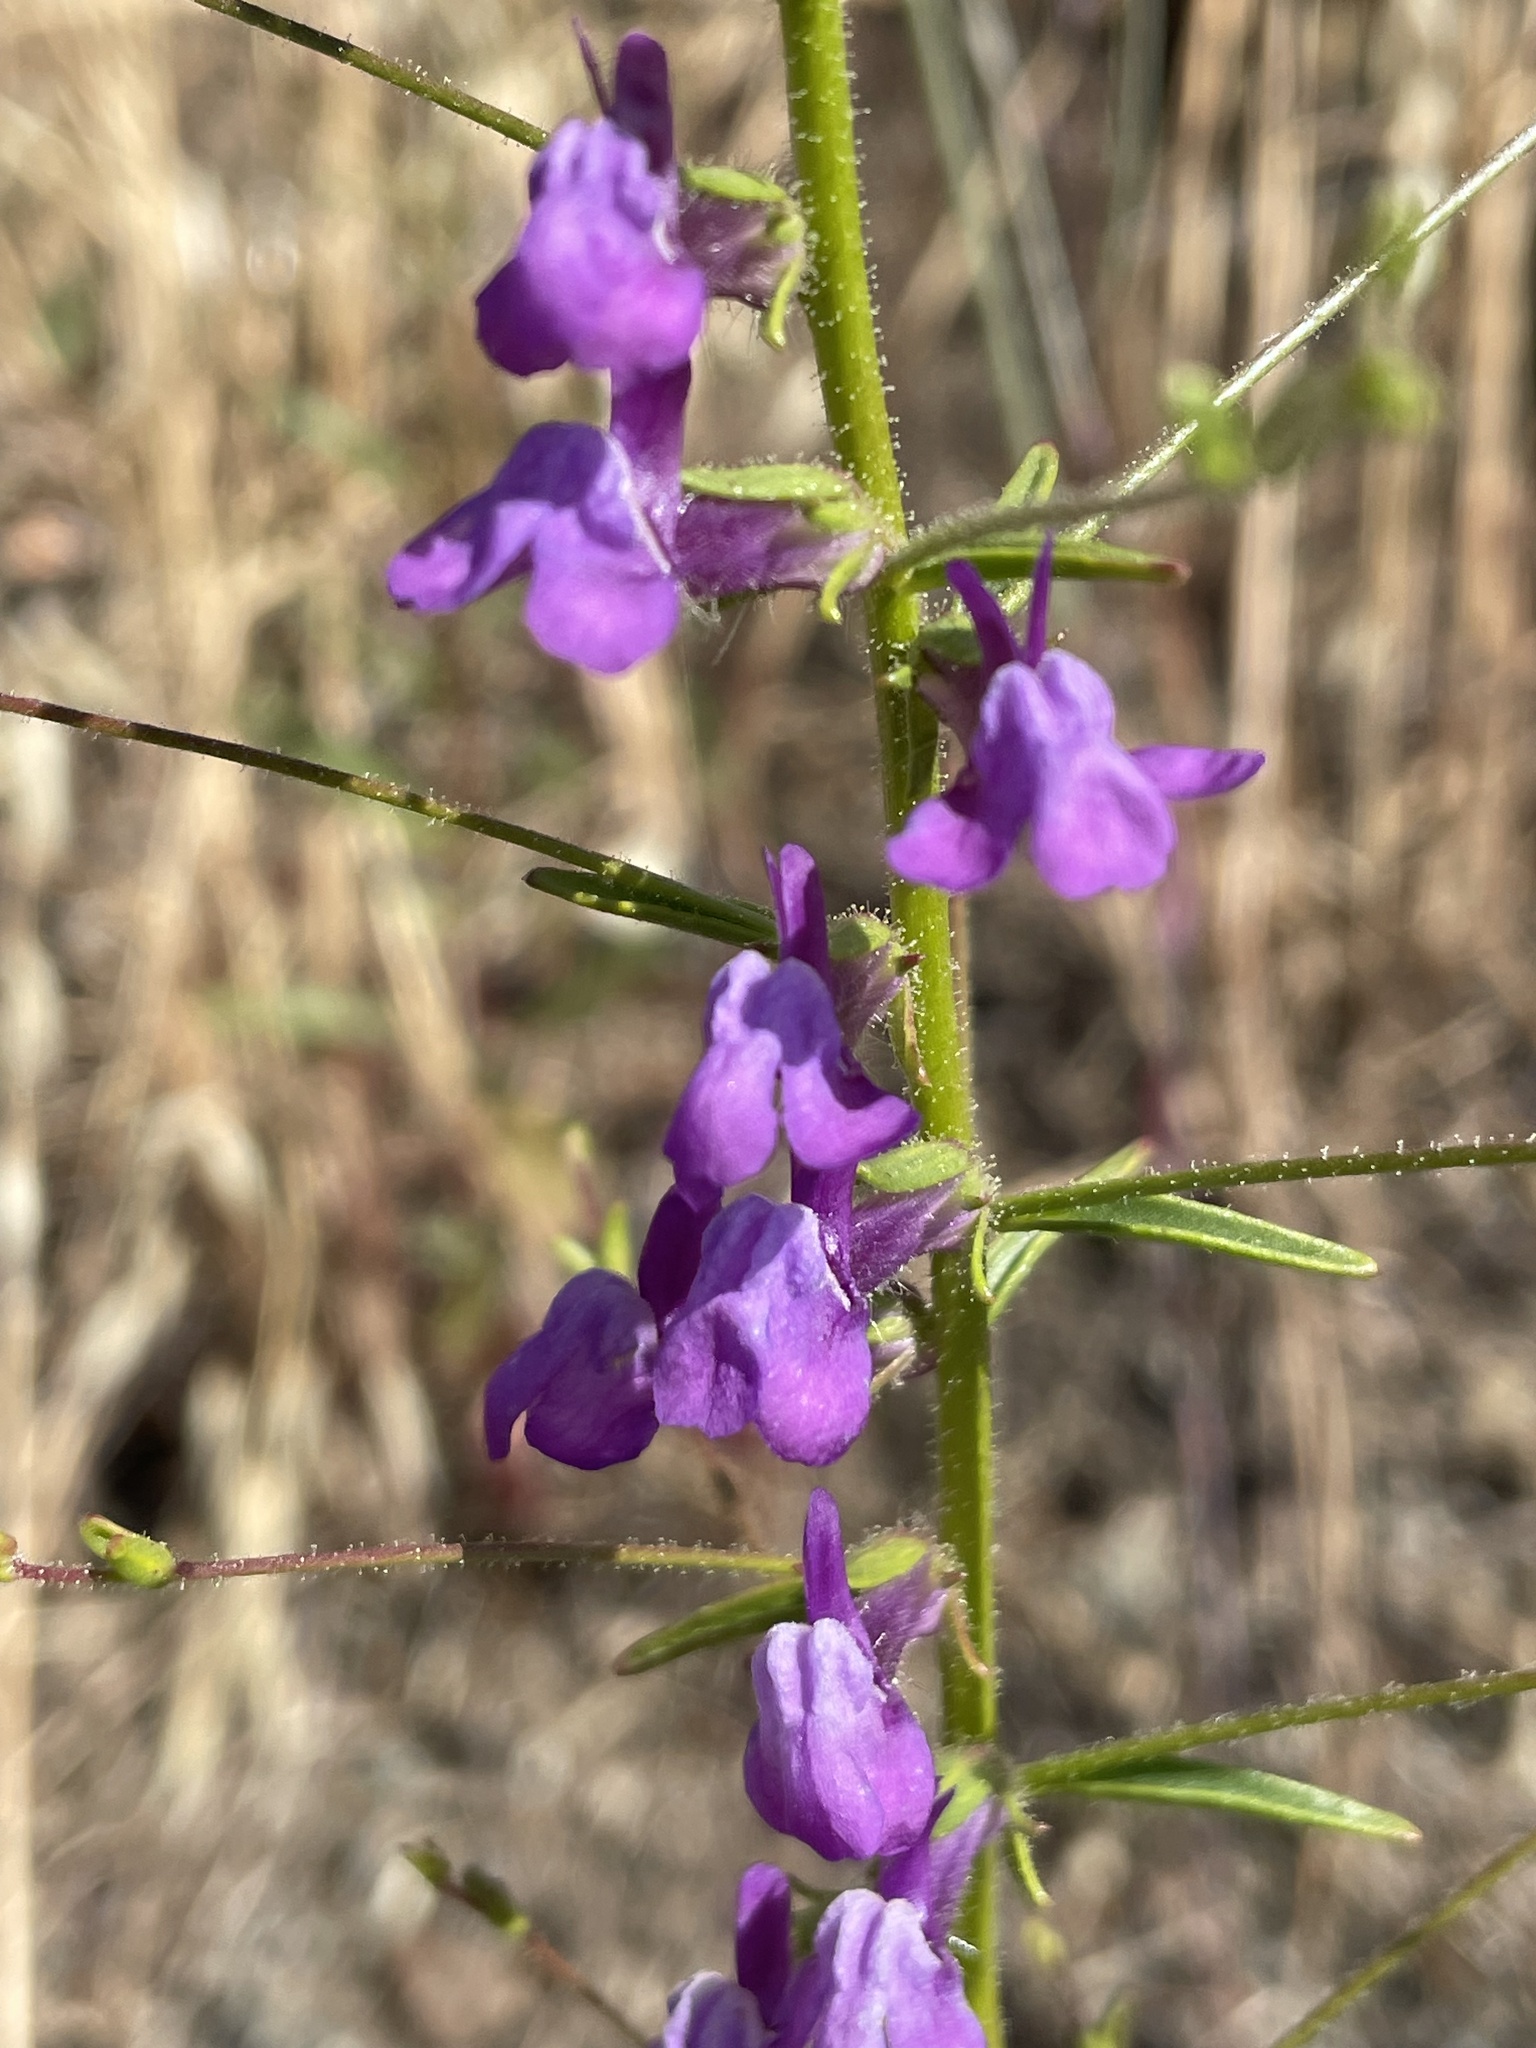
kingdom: Plantae
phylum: Tracheophyta
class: Magnoliopsida
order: Lamiales
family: Plantaginaceae
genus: Sairocarpus
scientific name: Sairocarpus vexillocalyculatus
